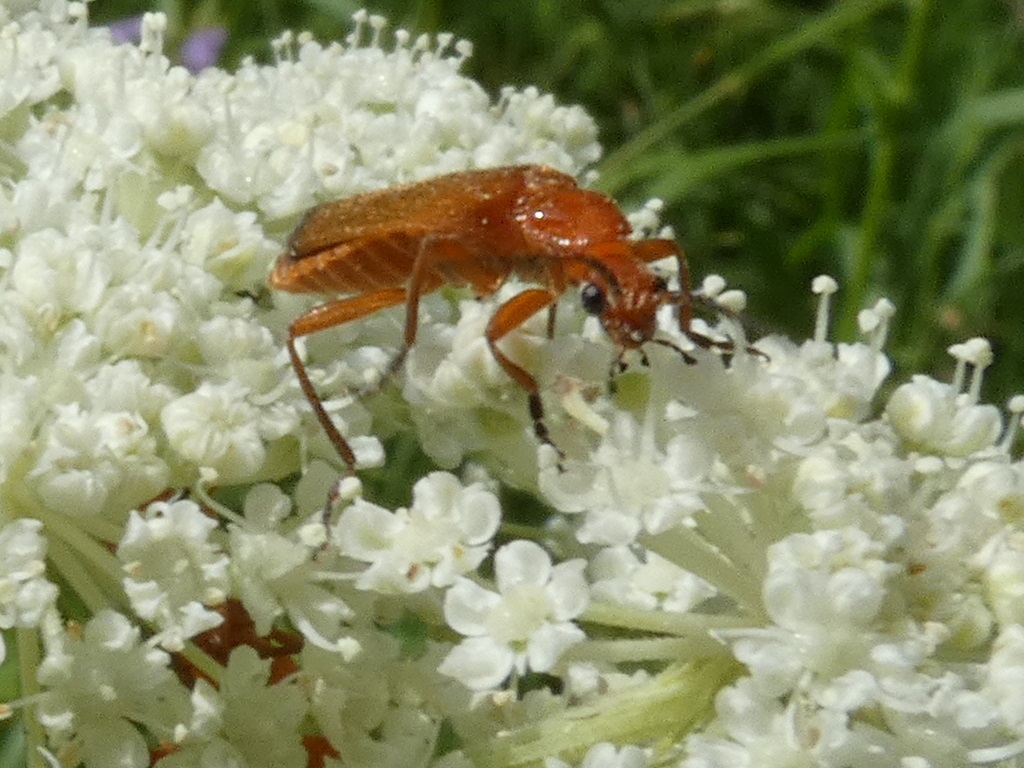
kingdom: Animalia
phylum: Arthropoda
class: Insecta
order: Coleoptera
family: Cantharidae
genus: Rhagonycha
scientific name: Rhagonycha fulva
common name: Common red soldier beetle
